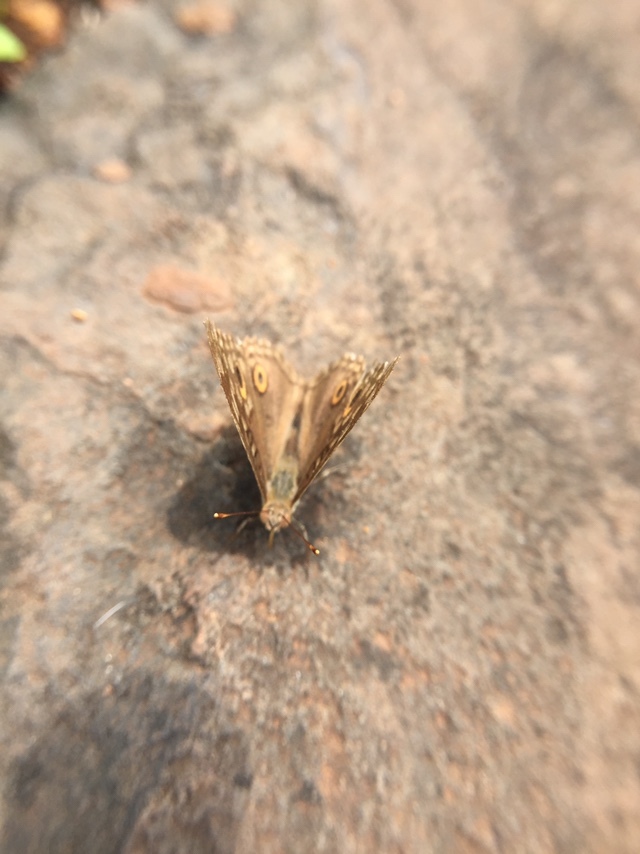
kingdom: Animalia
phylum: Arthropoda
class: Insecta
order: Lepidoptera
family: Nymphalidae
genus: Junonia
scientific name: Junonia lemonias
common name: Lemon pansy
